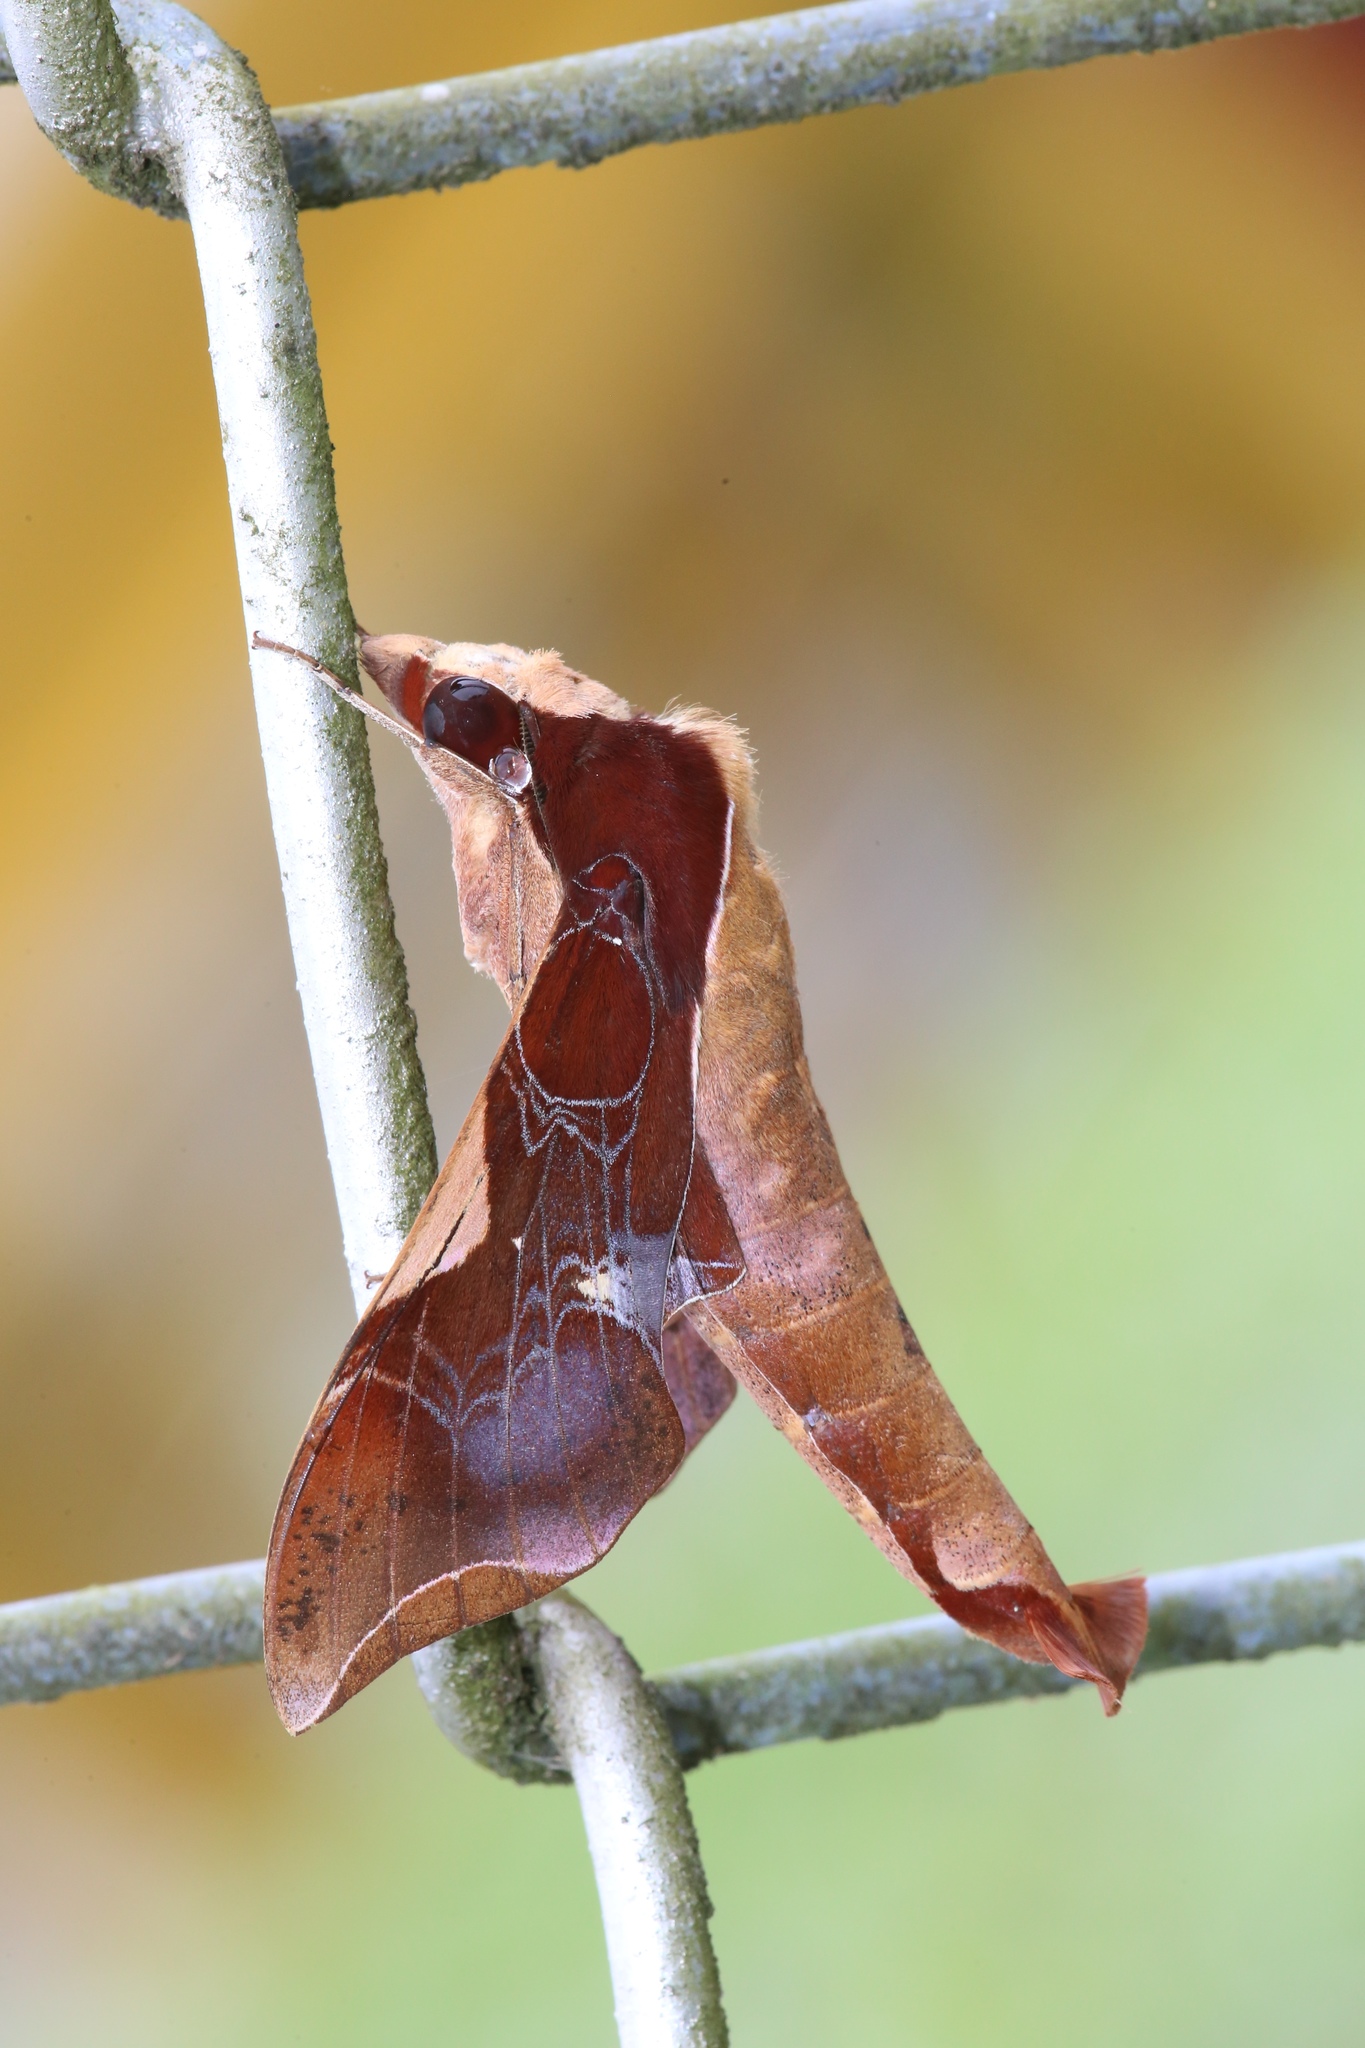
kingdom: Animalia
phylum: Arthropoda
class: Insecta
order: Lepidoptera
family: Sphingidae
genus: Callionima
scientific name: Callionima nomius
